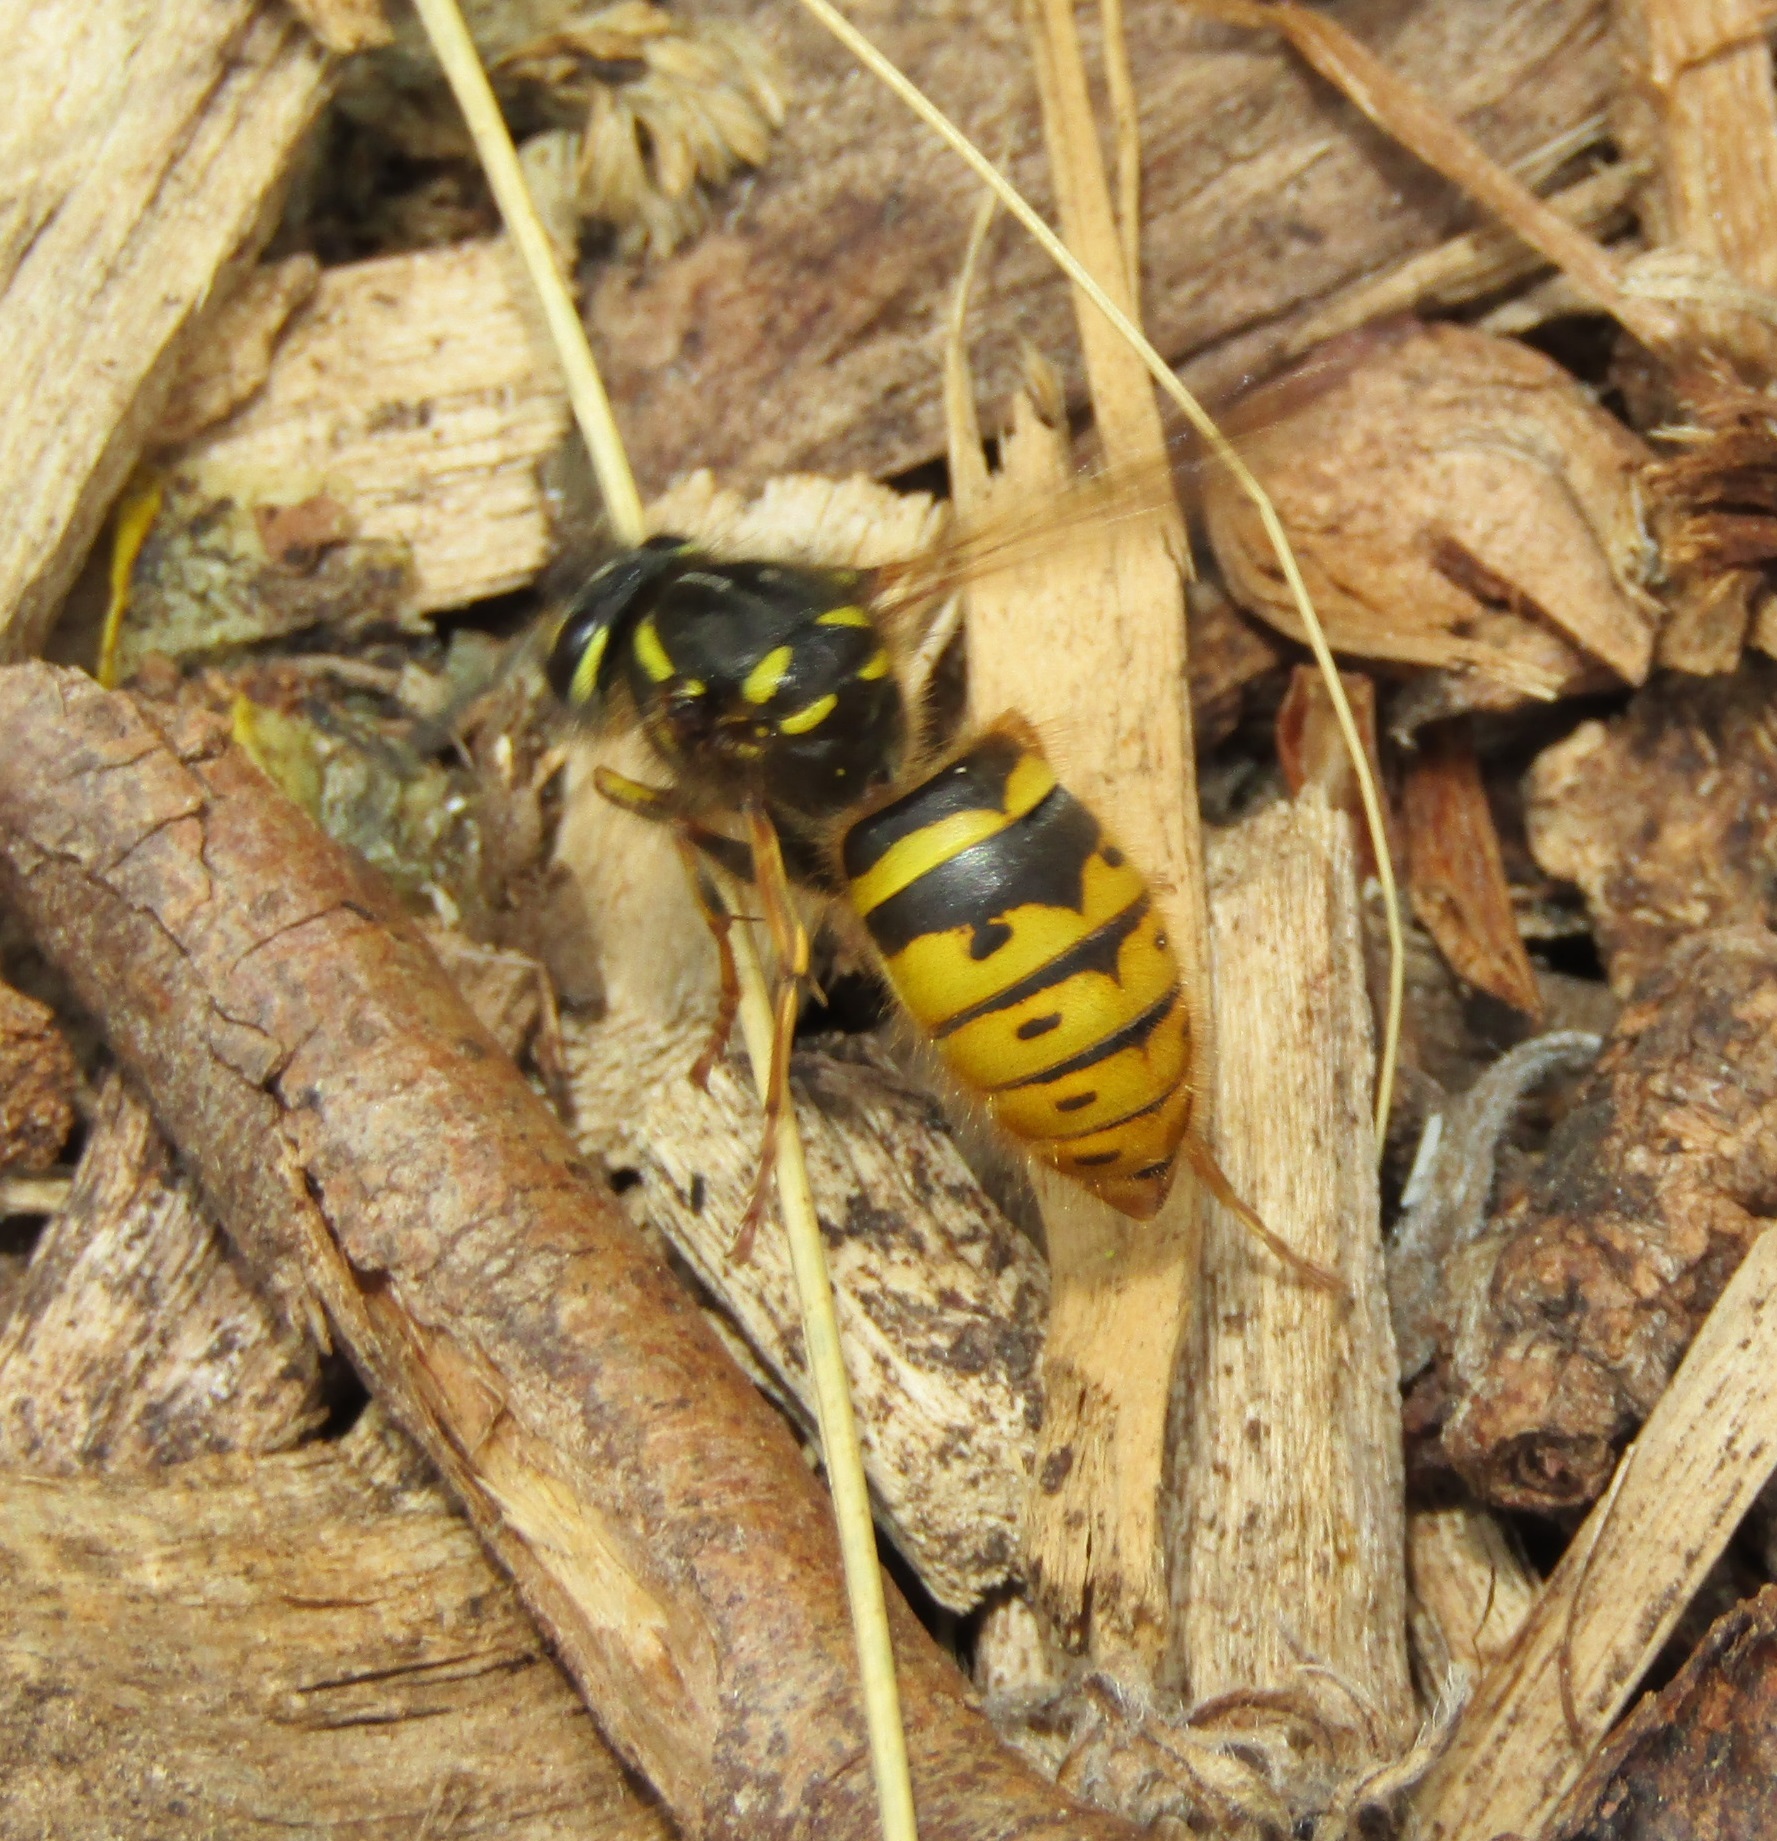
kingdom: Animalia
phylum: Arthropoda
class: Insecta
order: Hymenoptera
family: Vespidae
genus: Vespula
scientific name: Vespula vulgaris
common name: Common wasp
